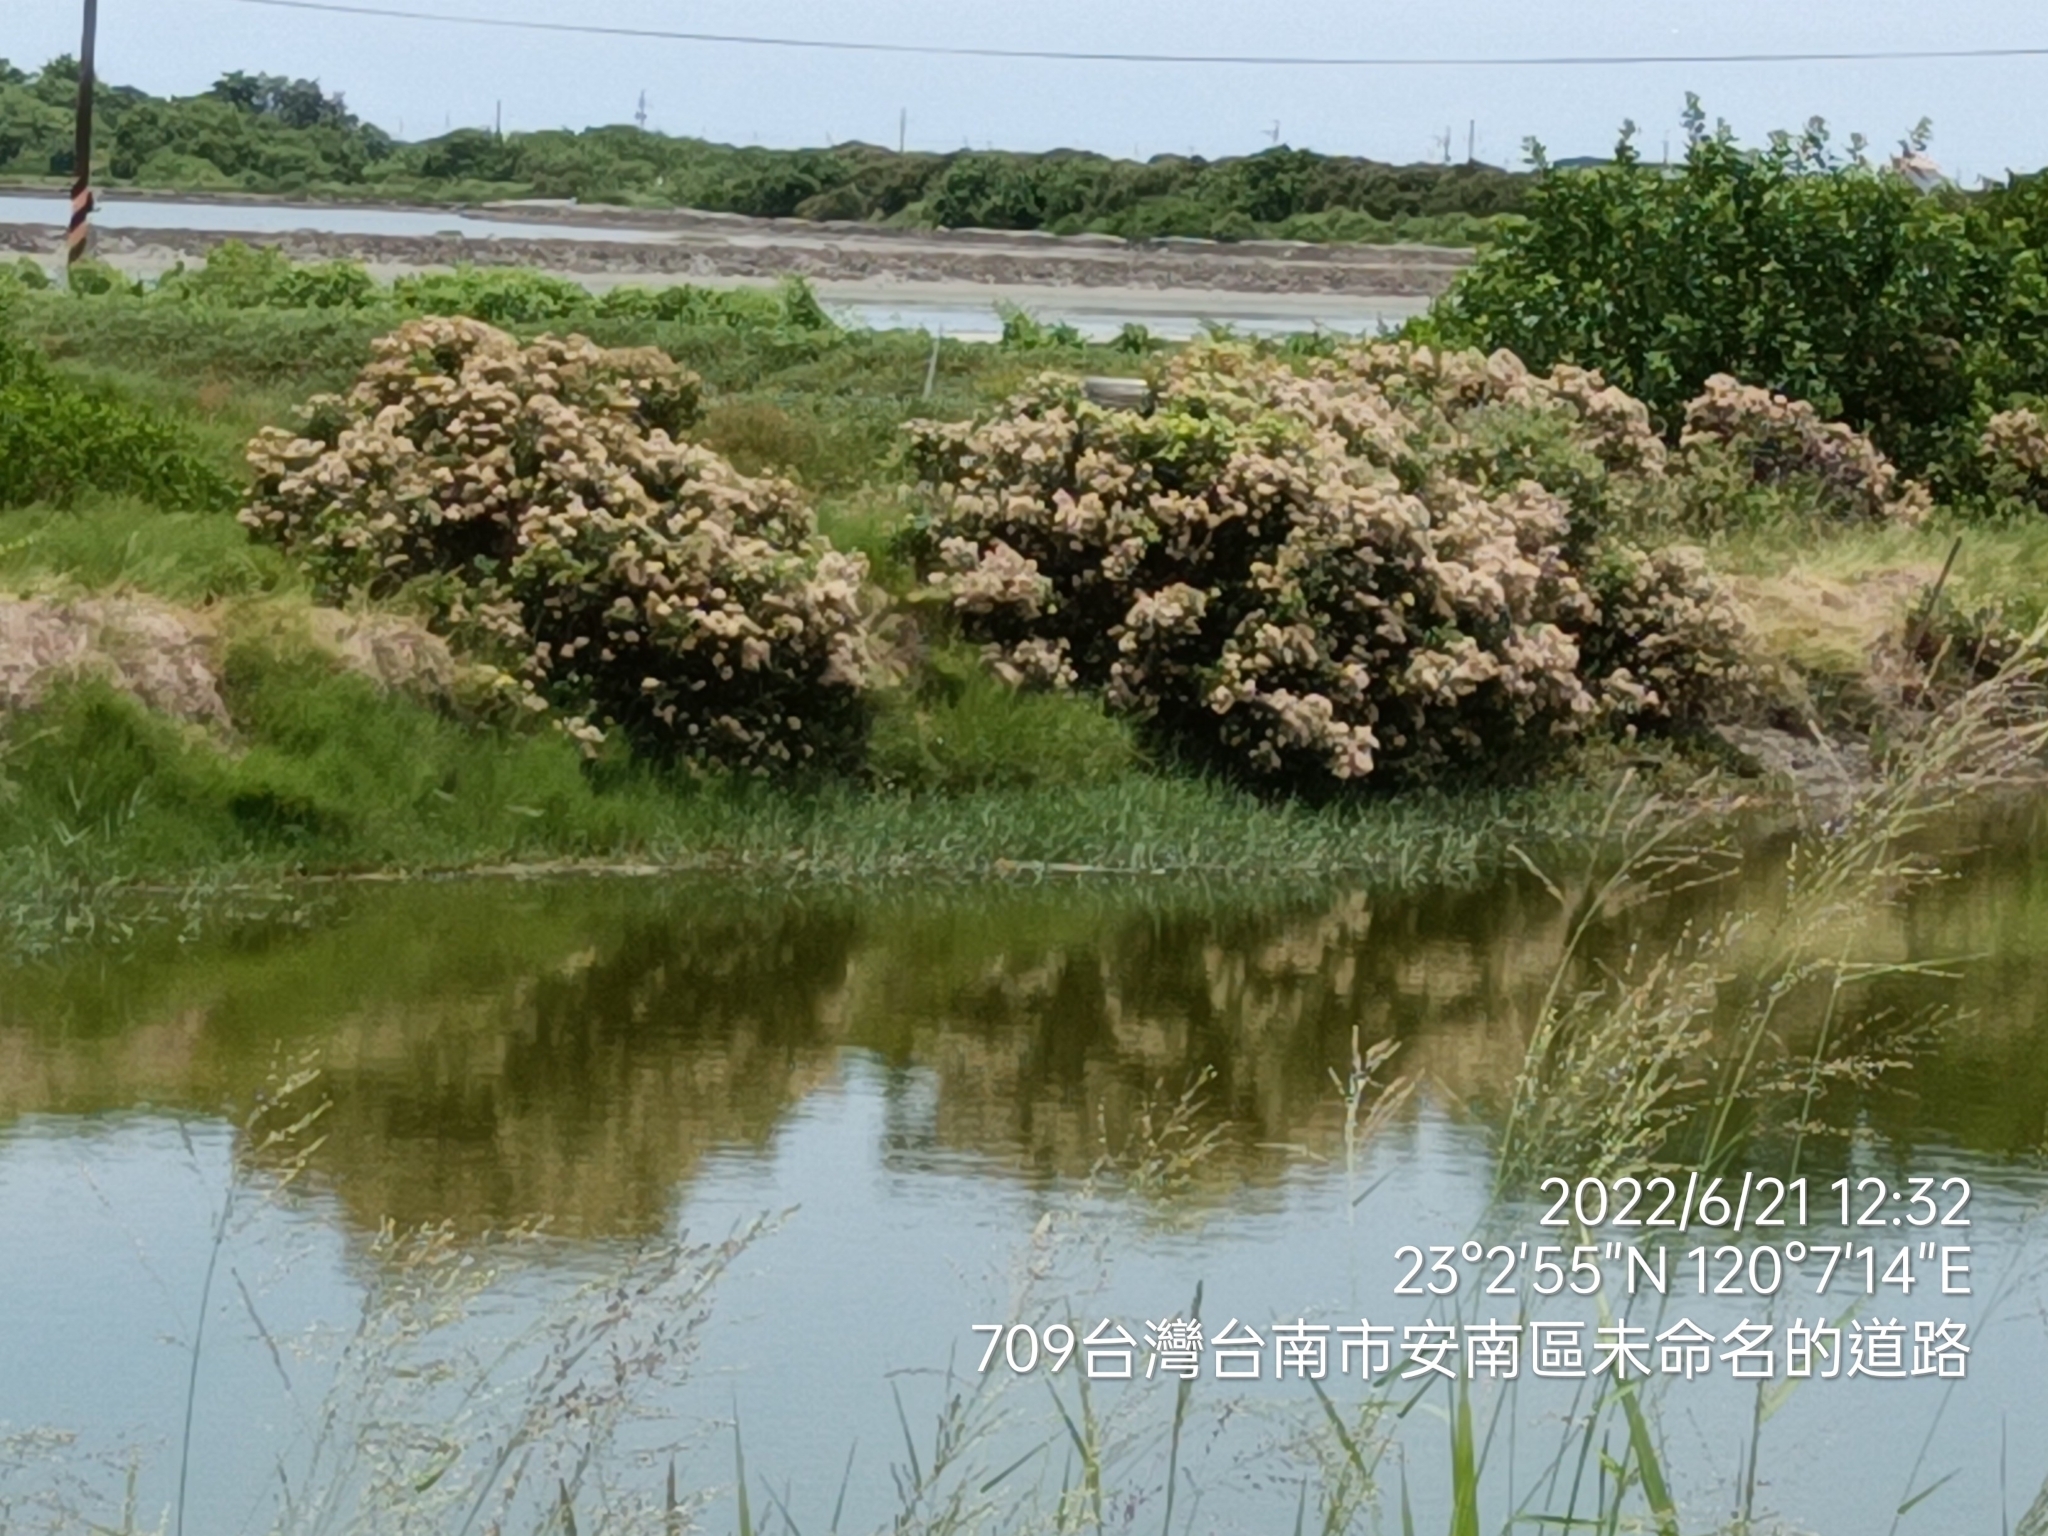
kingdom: Plantae
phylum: Tracheophyta
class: Magnoliopsida
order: Asterales
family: Asteraceae
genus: Pluchea
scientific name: Pluchea indica
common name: Indian fleabane
